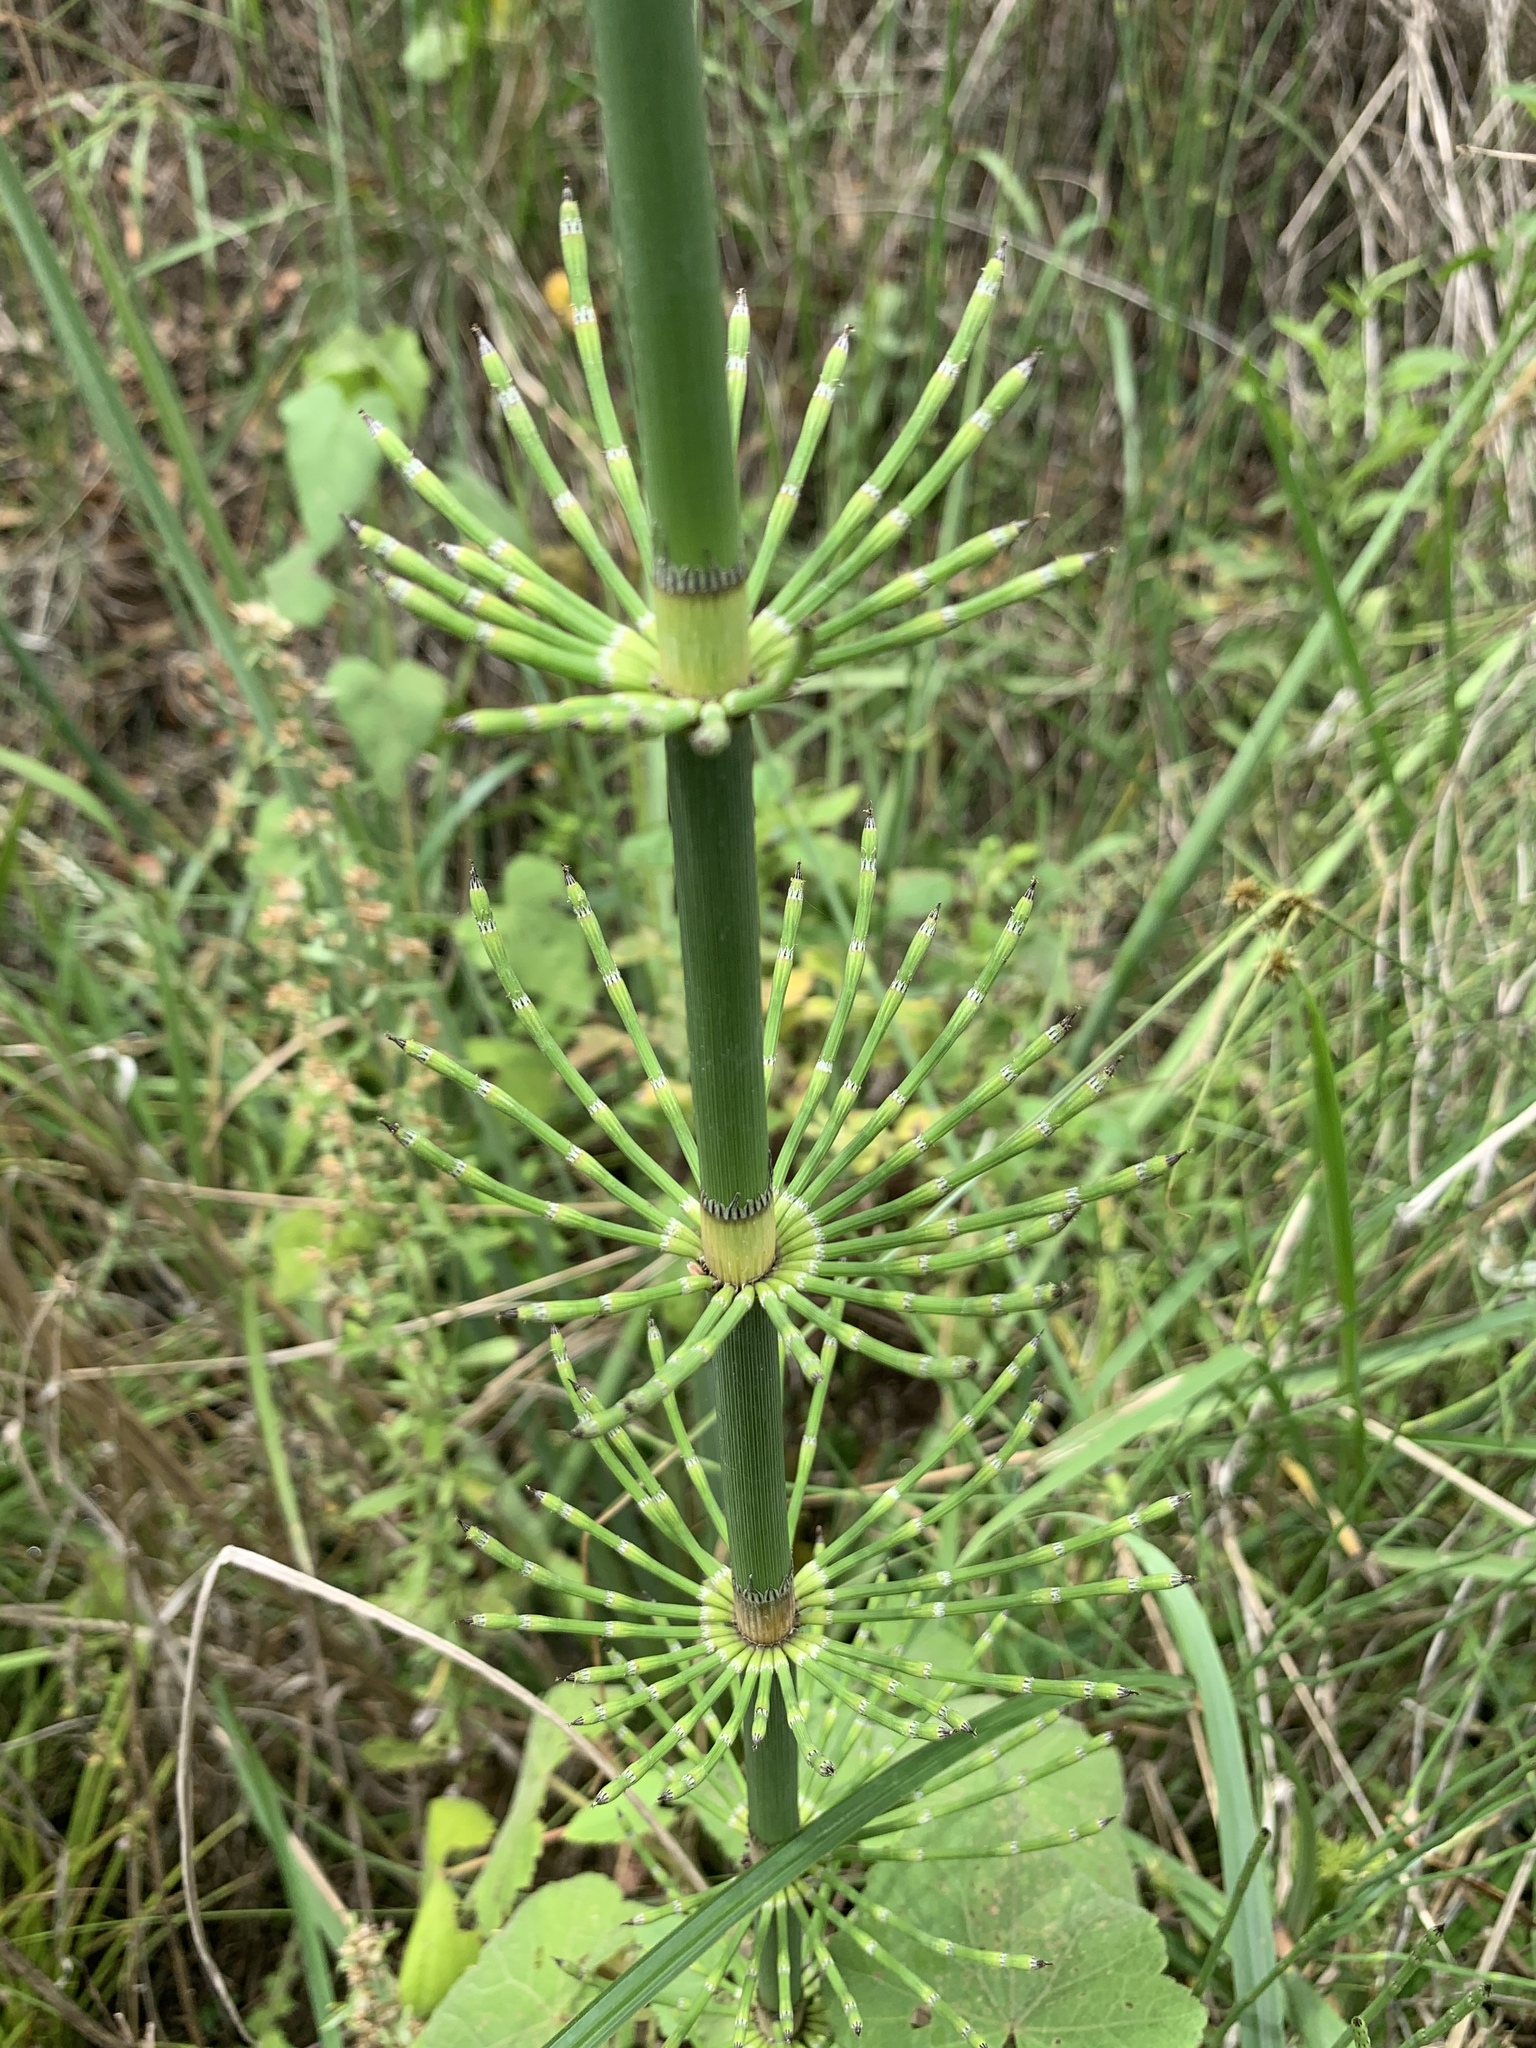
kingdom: Plantae
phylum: Tracheophyta
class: Polypodiopsida
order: Equisetales
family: Equisetaceae
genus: Equisetum
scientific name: Equisetum giganteum
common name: Giant horsetail
